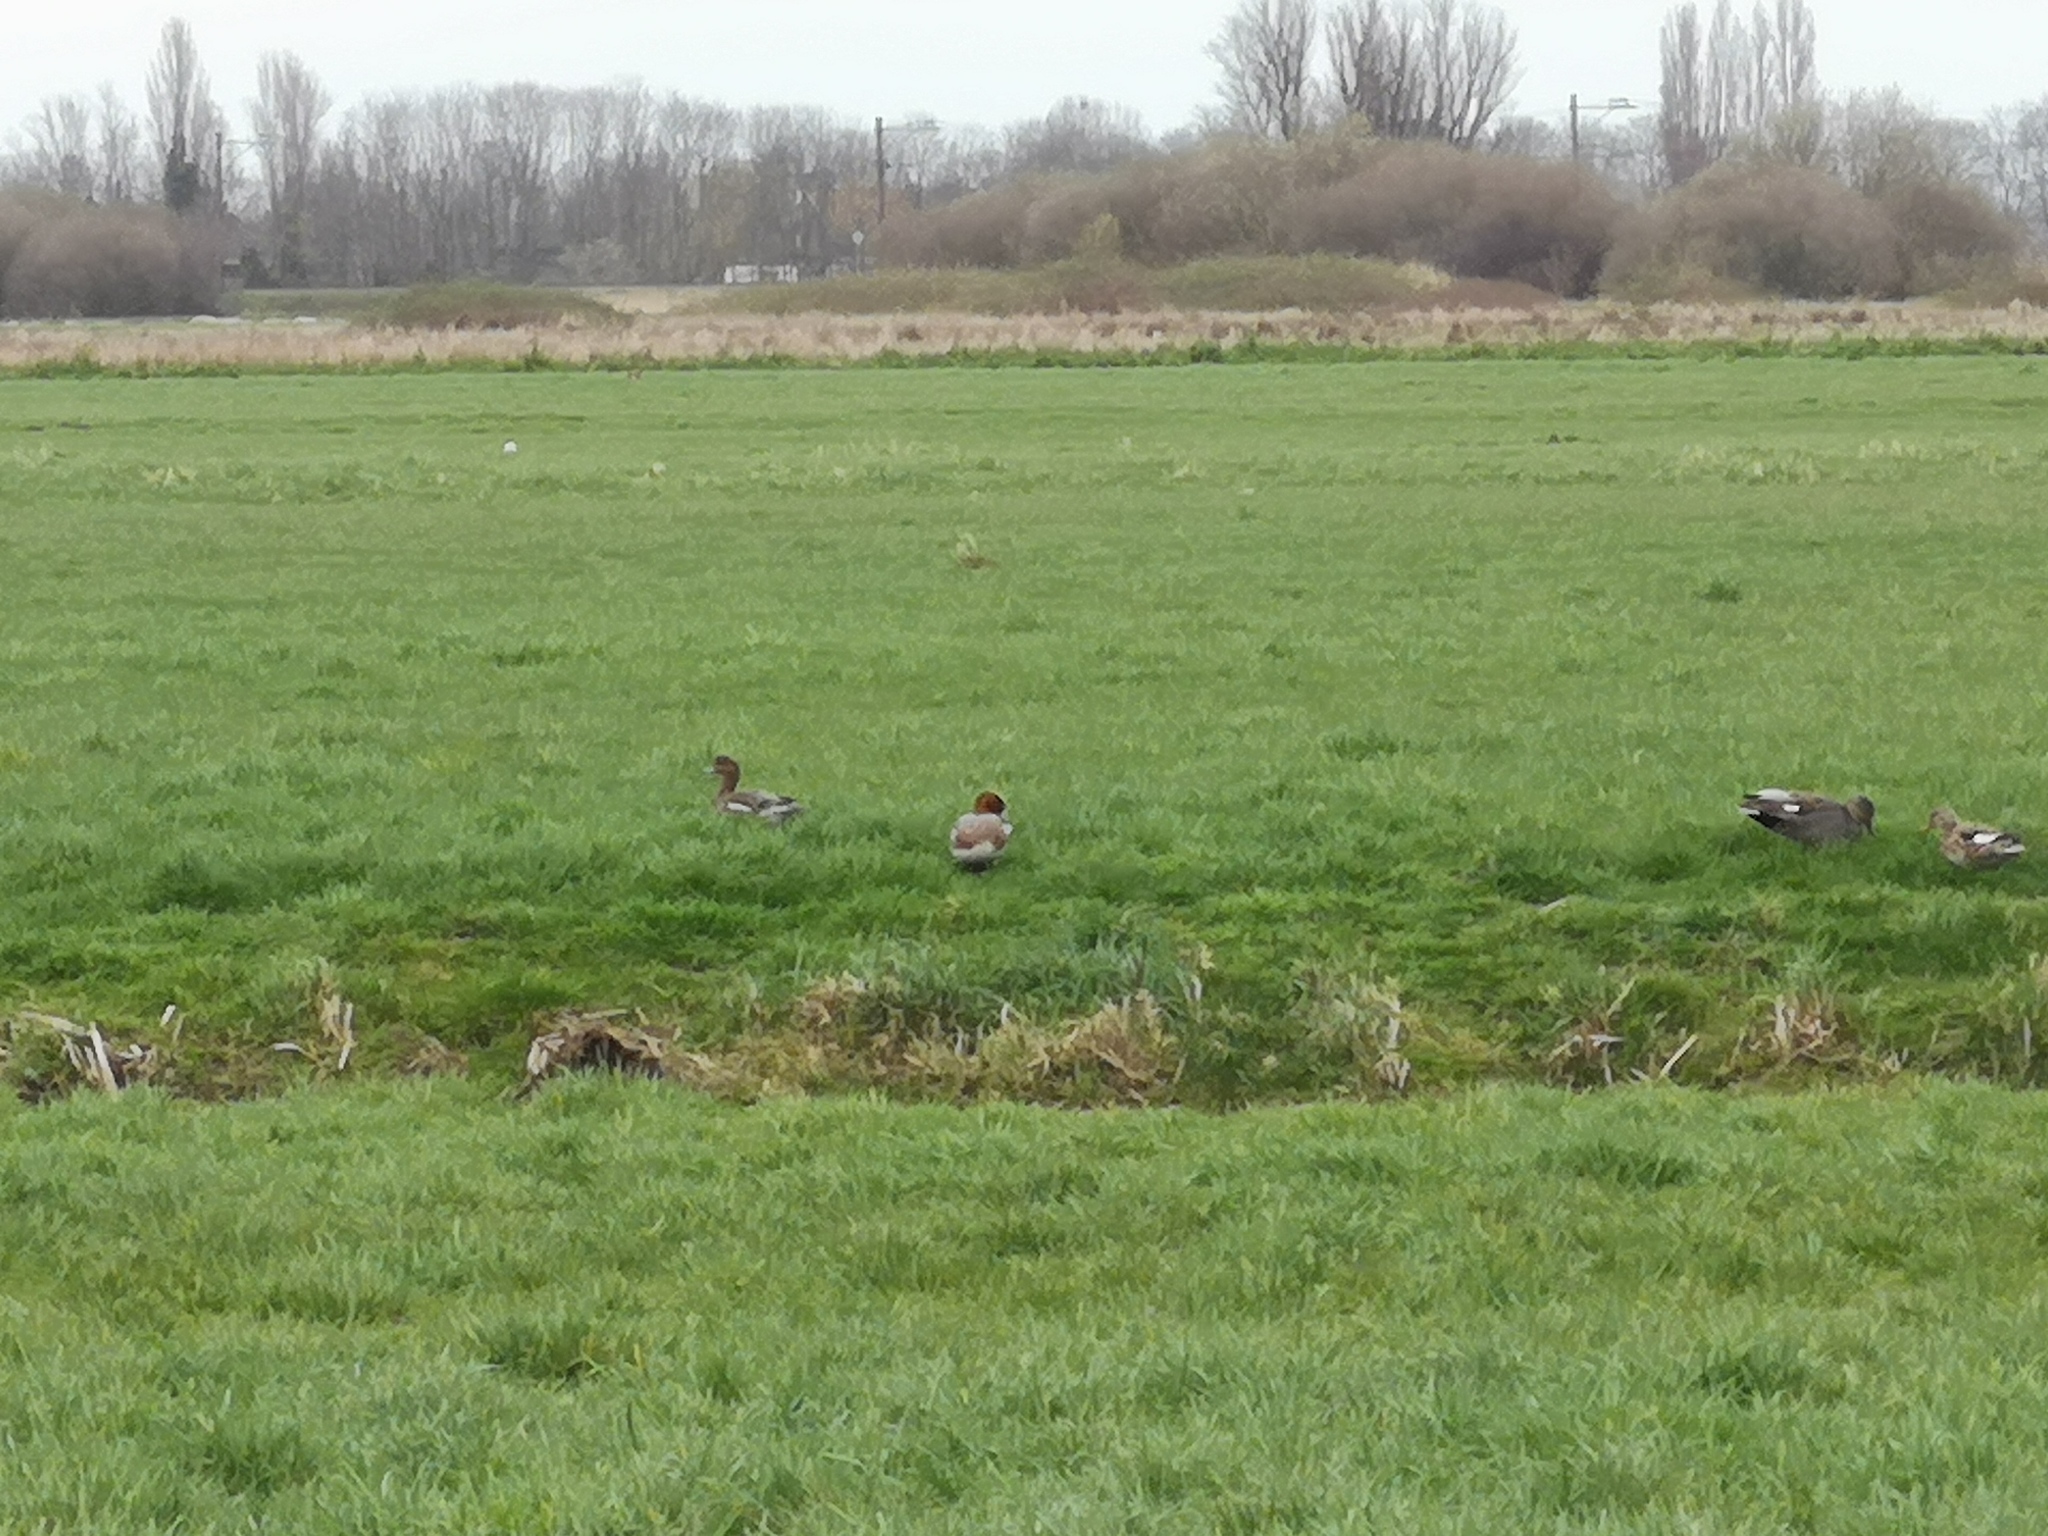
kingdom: Animalia
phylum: Chordata
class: Aves
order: Anseriformes
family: Anatidae
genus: Mareca
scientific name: Mareca penelope
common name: Eurasian wigeon
